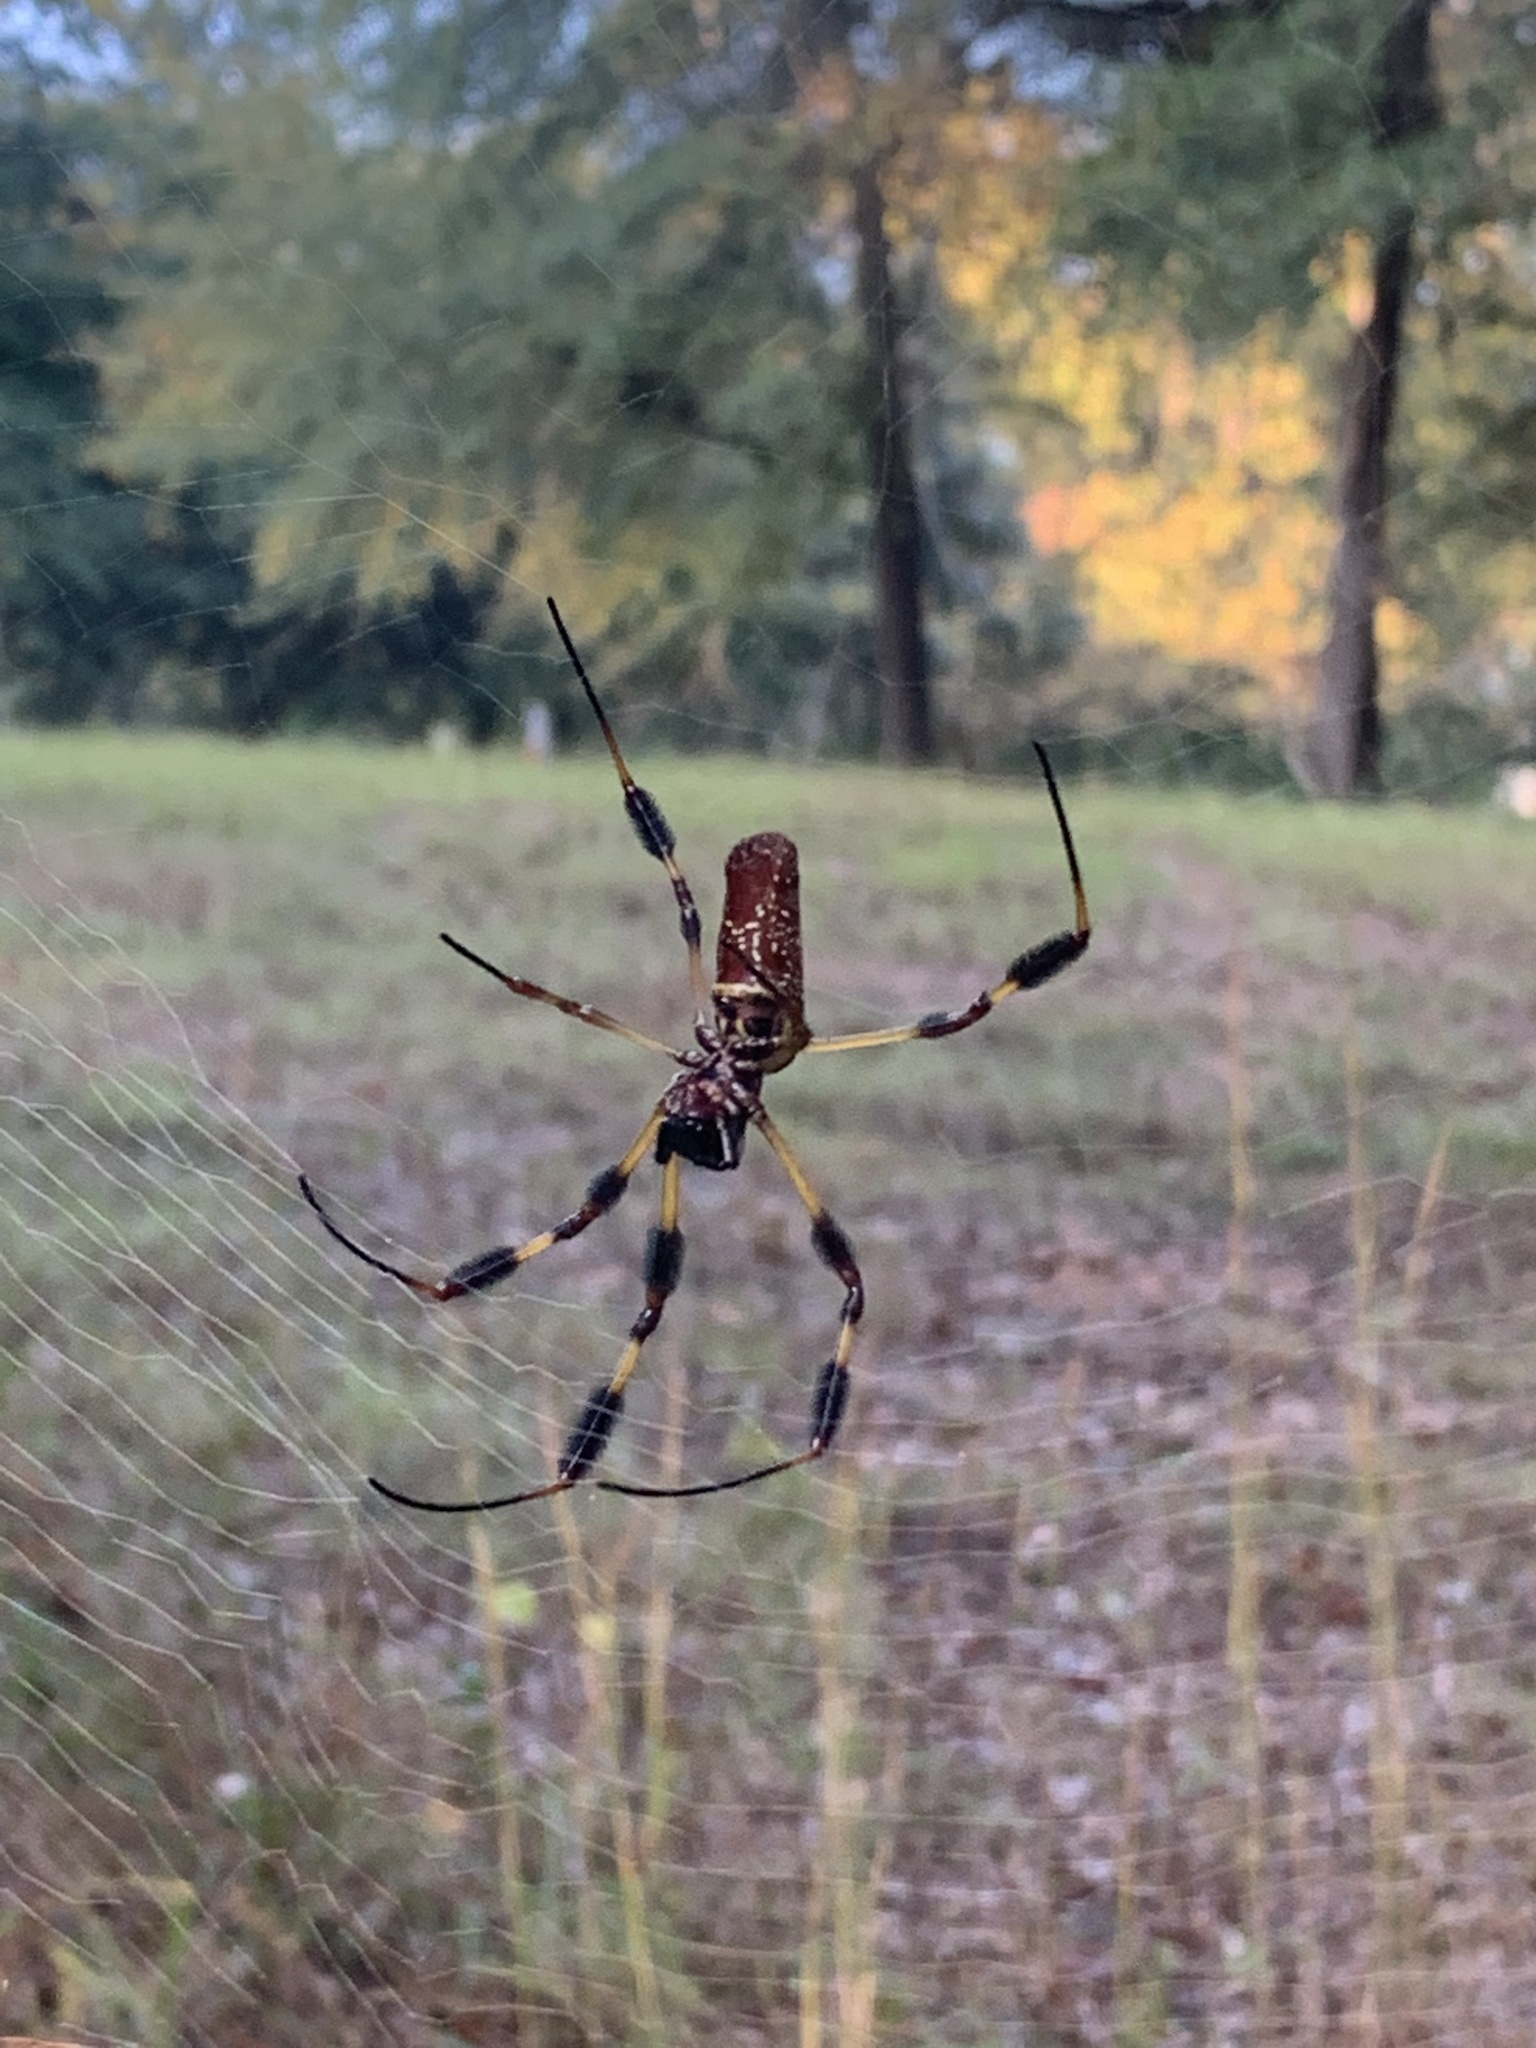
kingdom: Animalia
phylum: Arthropoda
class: Arachnida
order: Araneae
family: Araneidae
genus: Trichonephila
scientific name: Trichonephila clavipes
